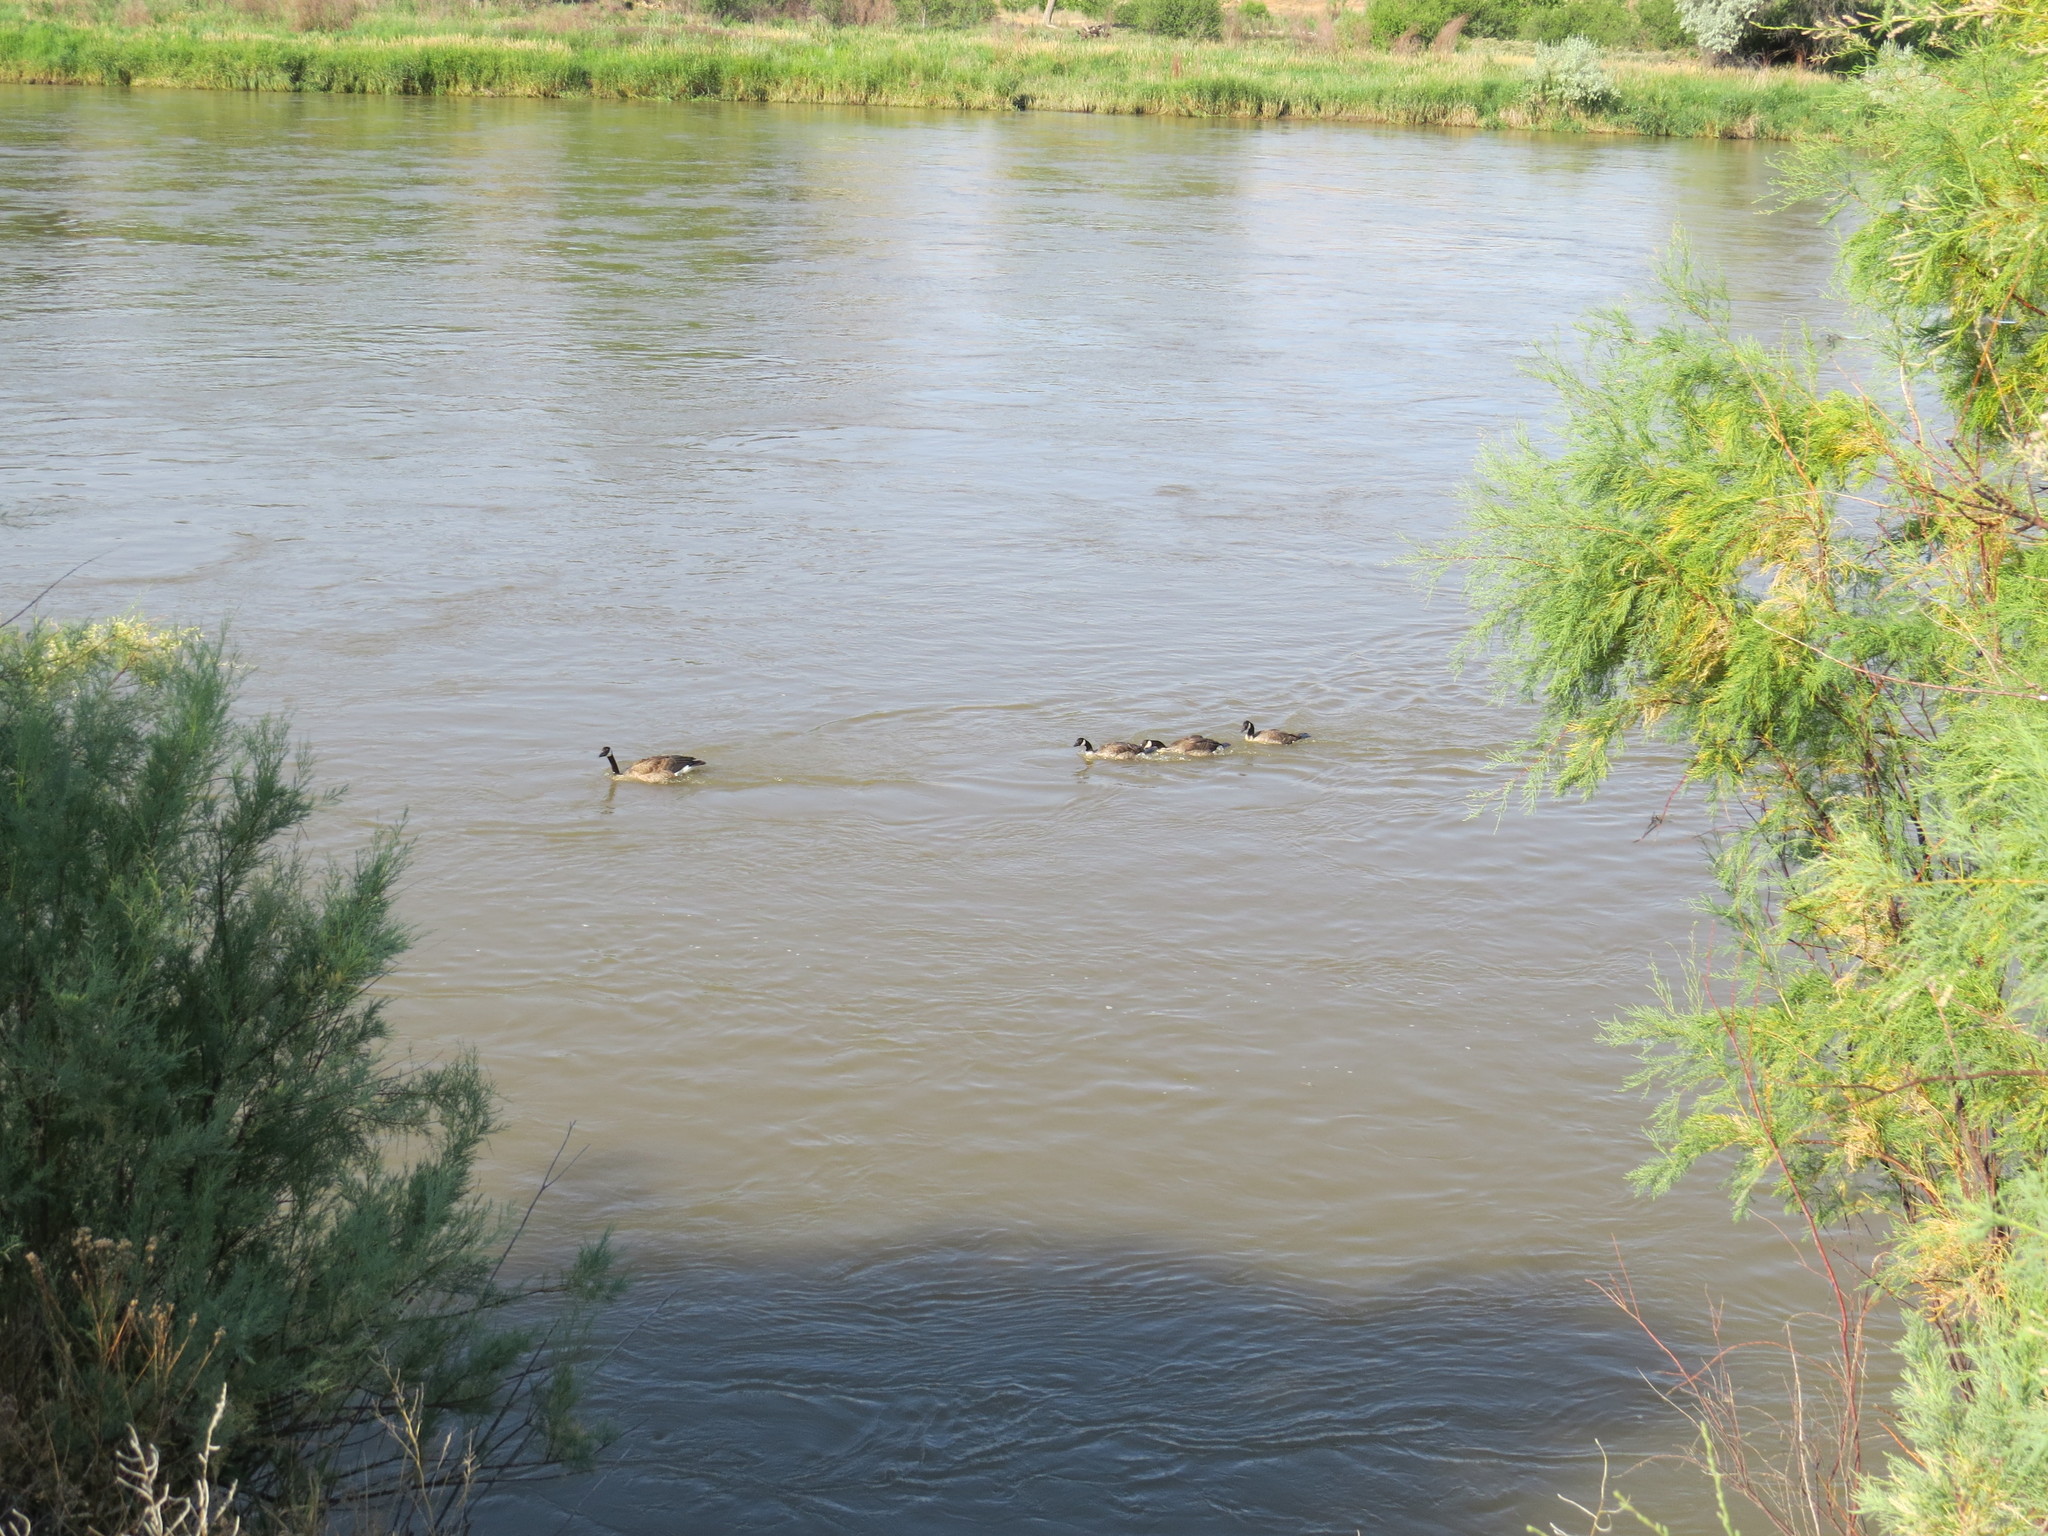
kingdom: Animalia
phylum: Chordata
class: Aves
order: Anseriformes
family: Anatidae
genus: Branta
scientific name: Branta canadensis
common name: Canada goose
